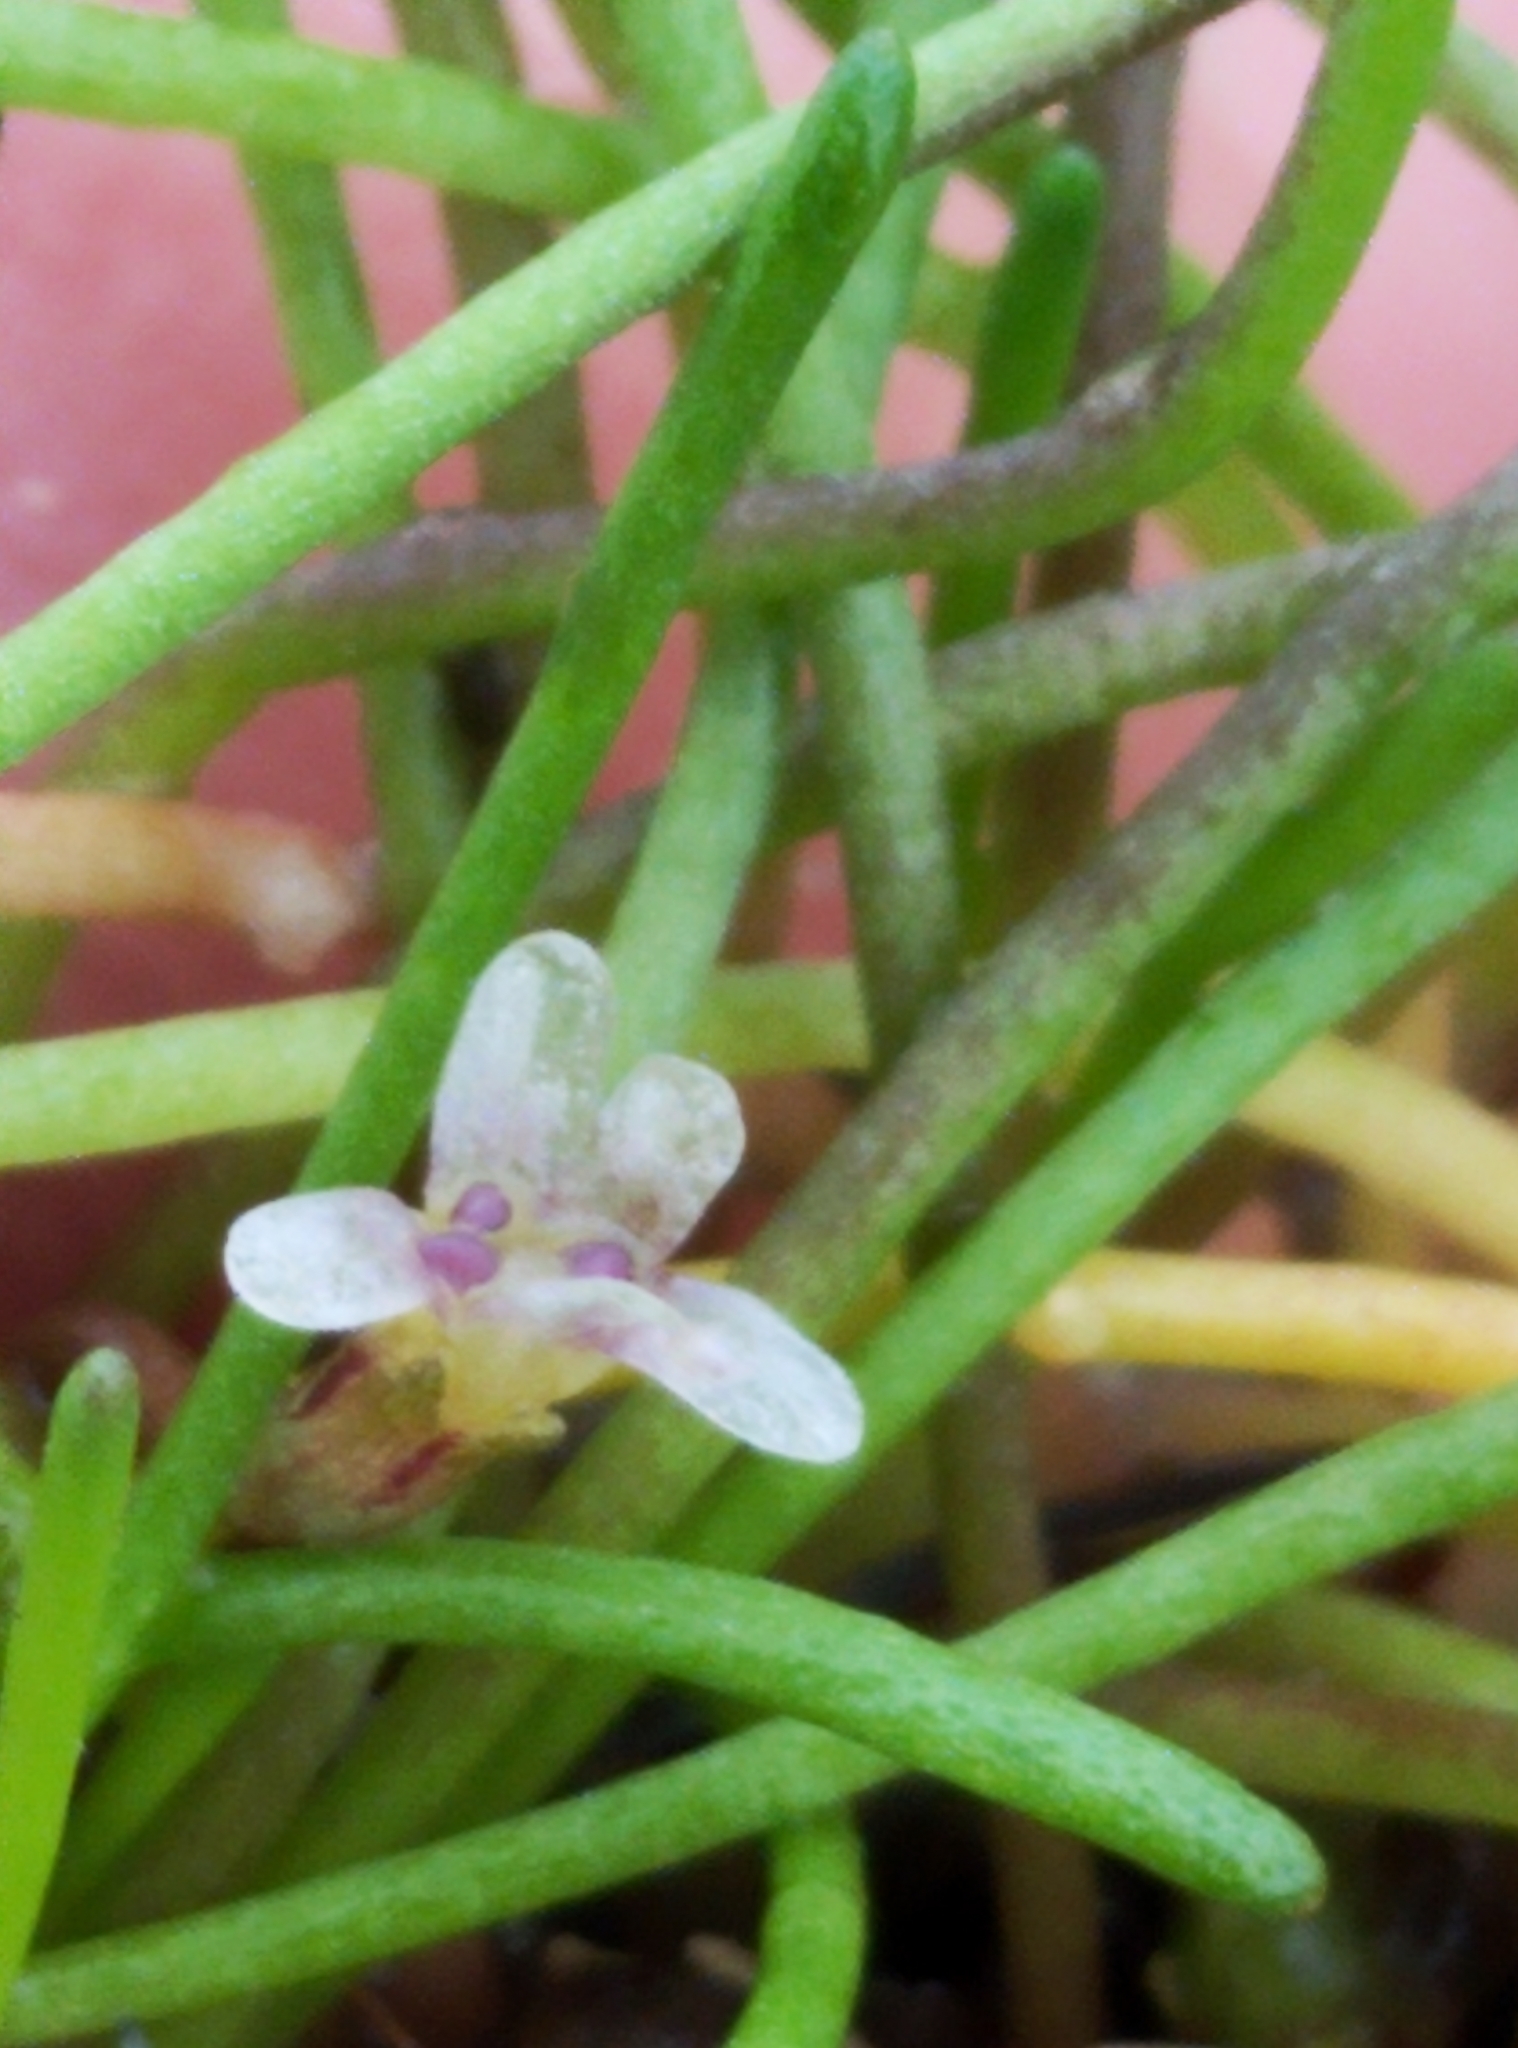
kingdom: Plantae
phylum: Tracheophyta
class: Magnoliopsida
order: Lamiales
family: Scrophulariaceae
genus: Limosella
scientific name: Limosella australis
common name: Welsh mudwort
